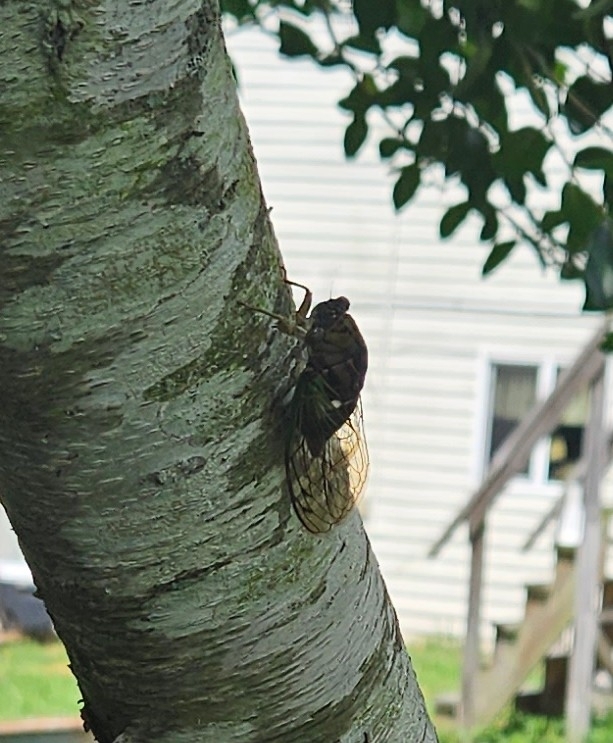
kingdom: Animalia
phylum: Arthropoda
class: Insecta
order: Hemiptera
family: Cicadidae
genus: Neotibicen
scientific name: Neotibicen tibicen
